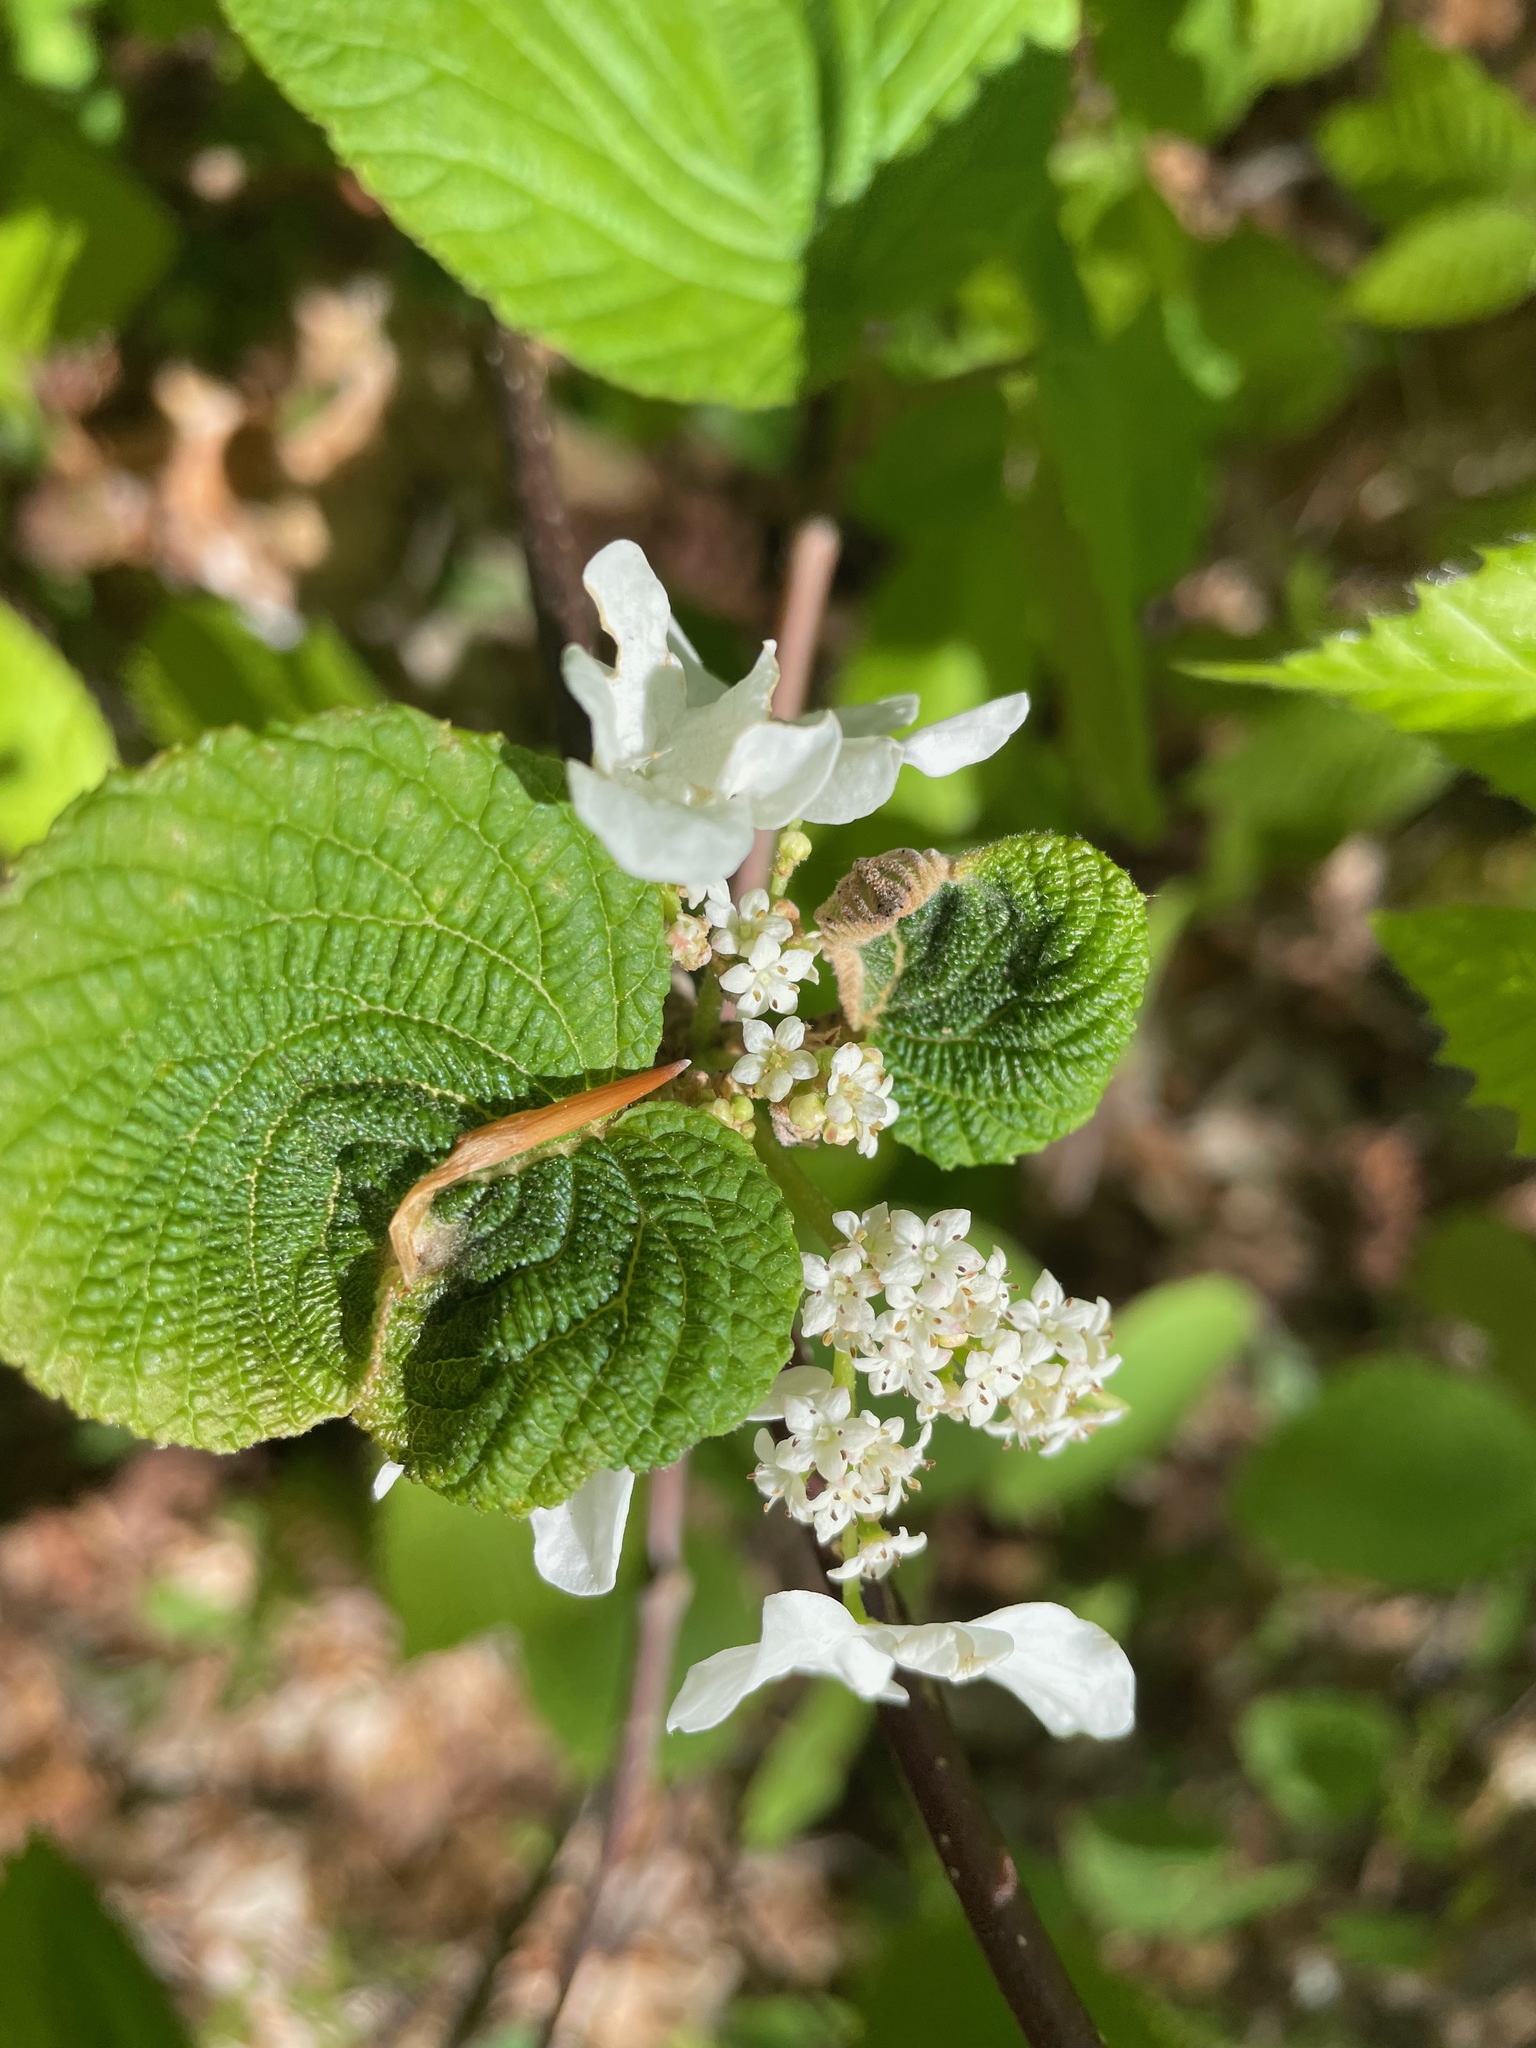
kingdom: Plantae
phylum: Tracheophyta
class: Magnoliopsida
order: Dipsacales
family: Viburnaceae
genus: Viburnum
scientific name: Viburnum lantanoides
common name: Hobblebush
